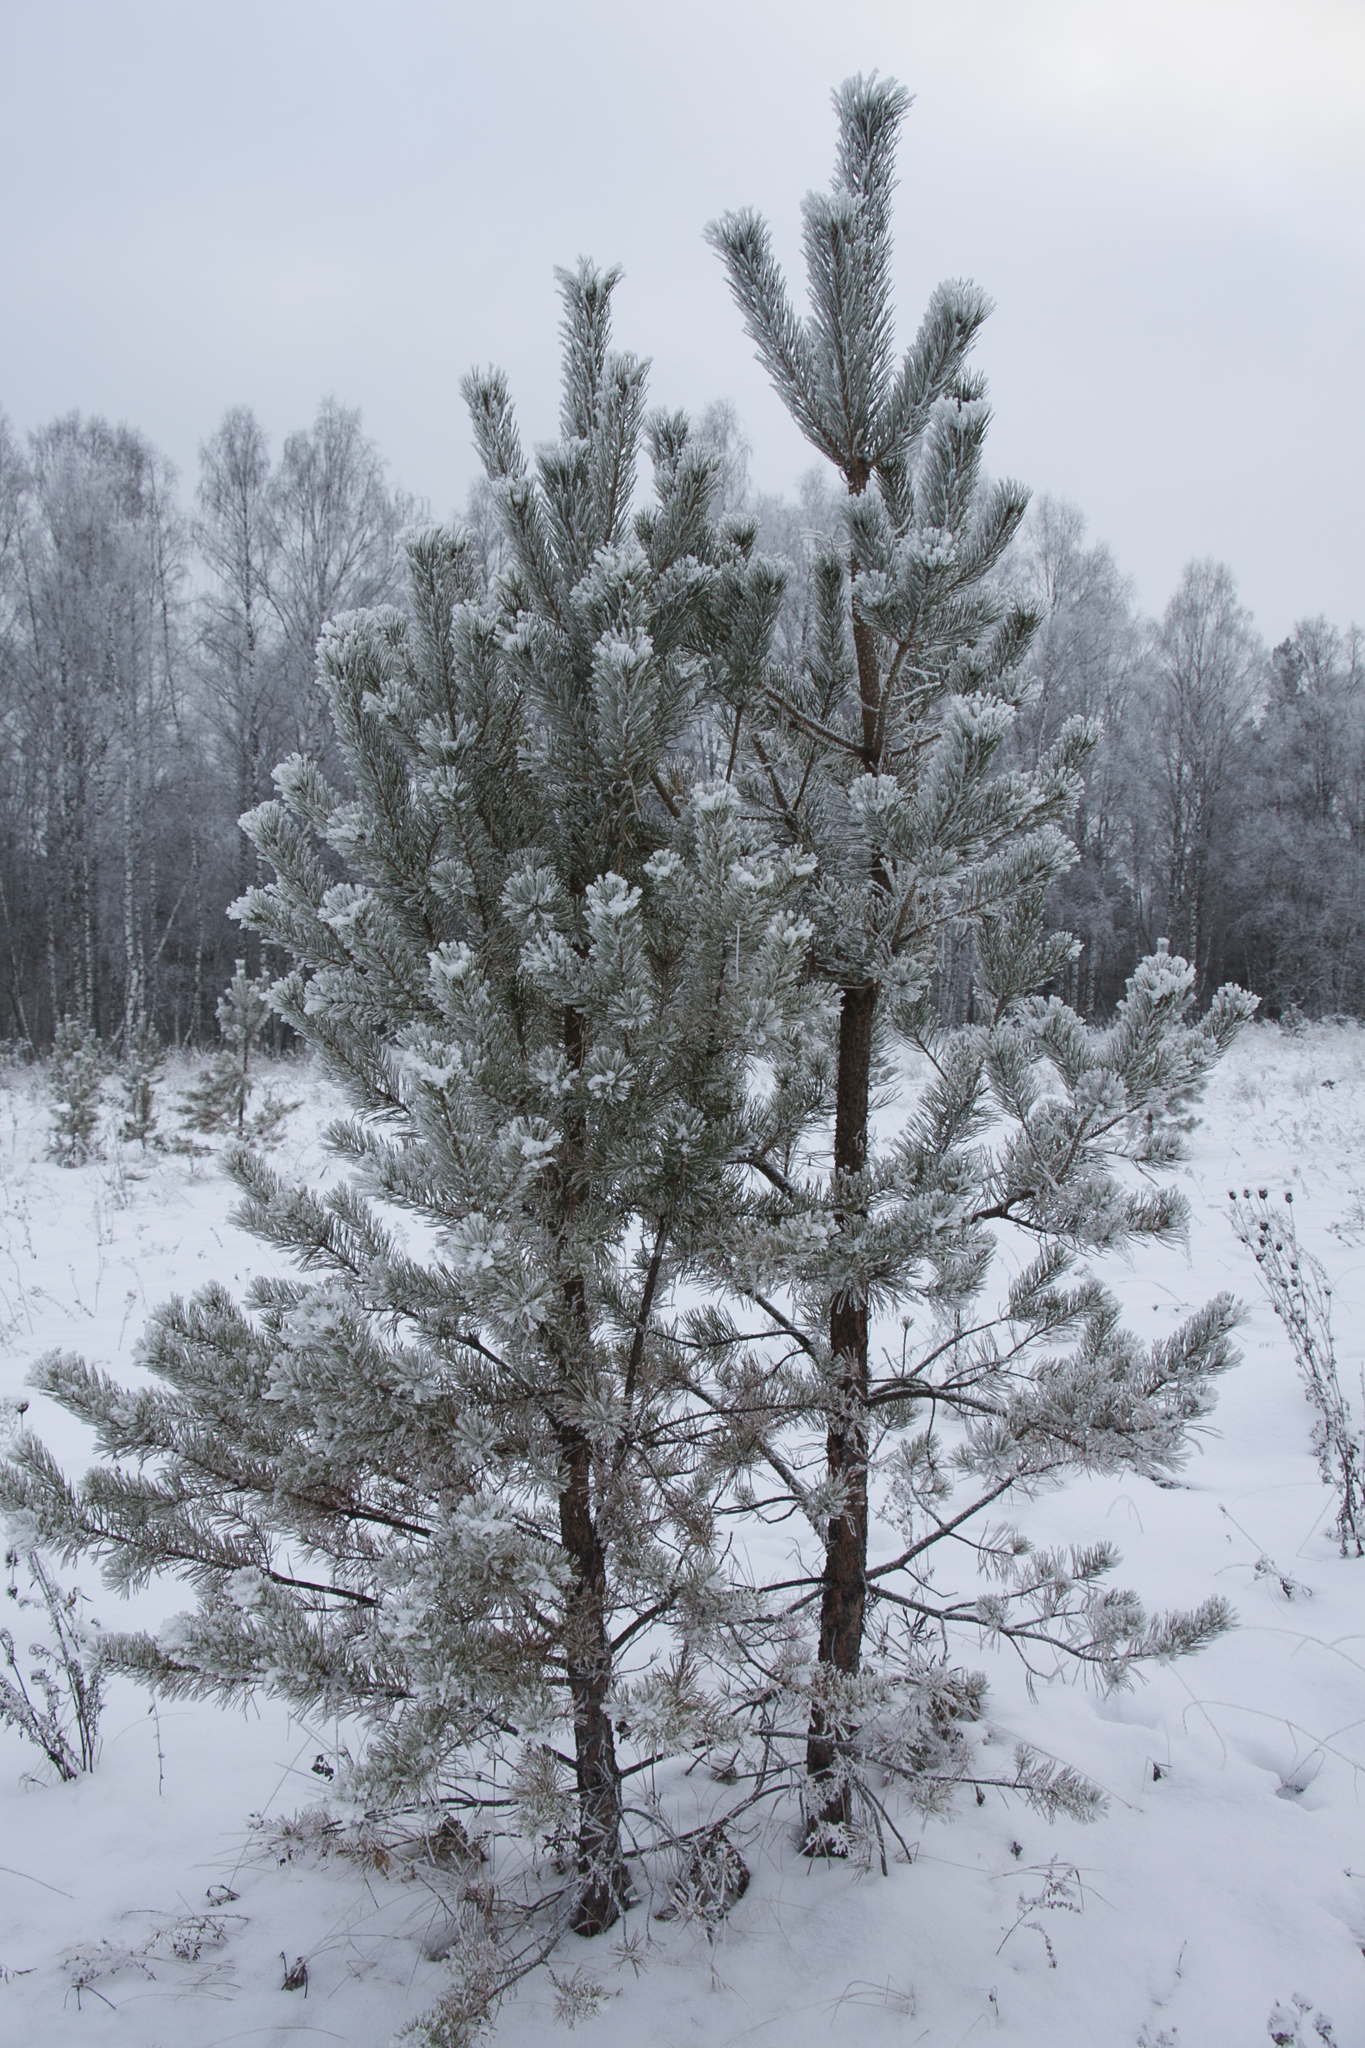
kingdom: Plantae
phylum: Tracheophyta
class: Pinopsida
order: Pinales
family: Pinaceae
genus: Pinus
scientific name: Pinus sylvestris
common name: Scots pine
